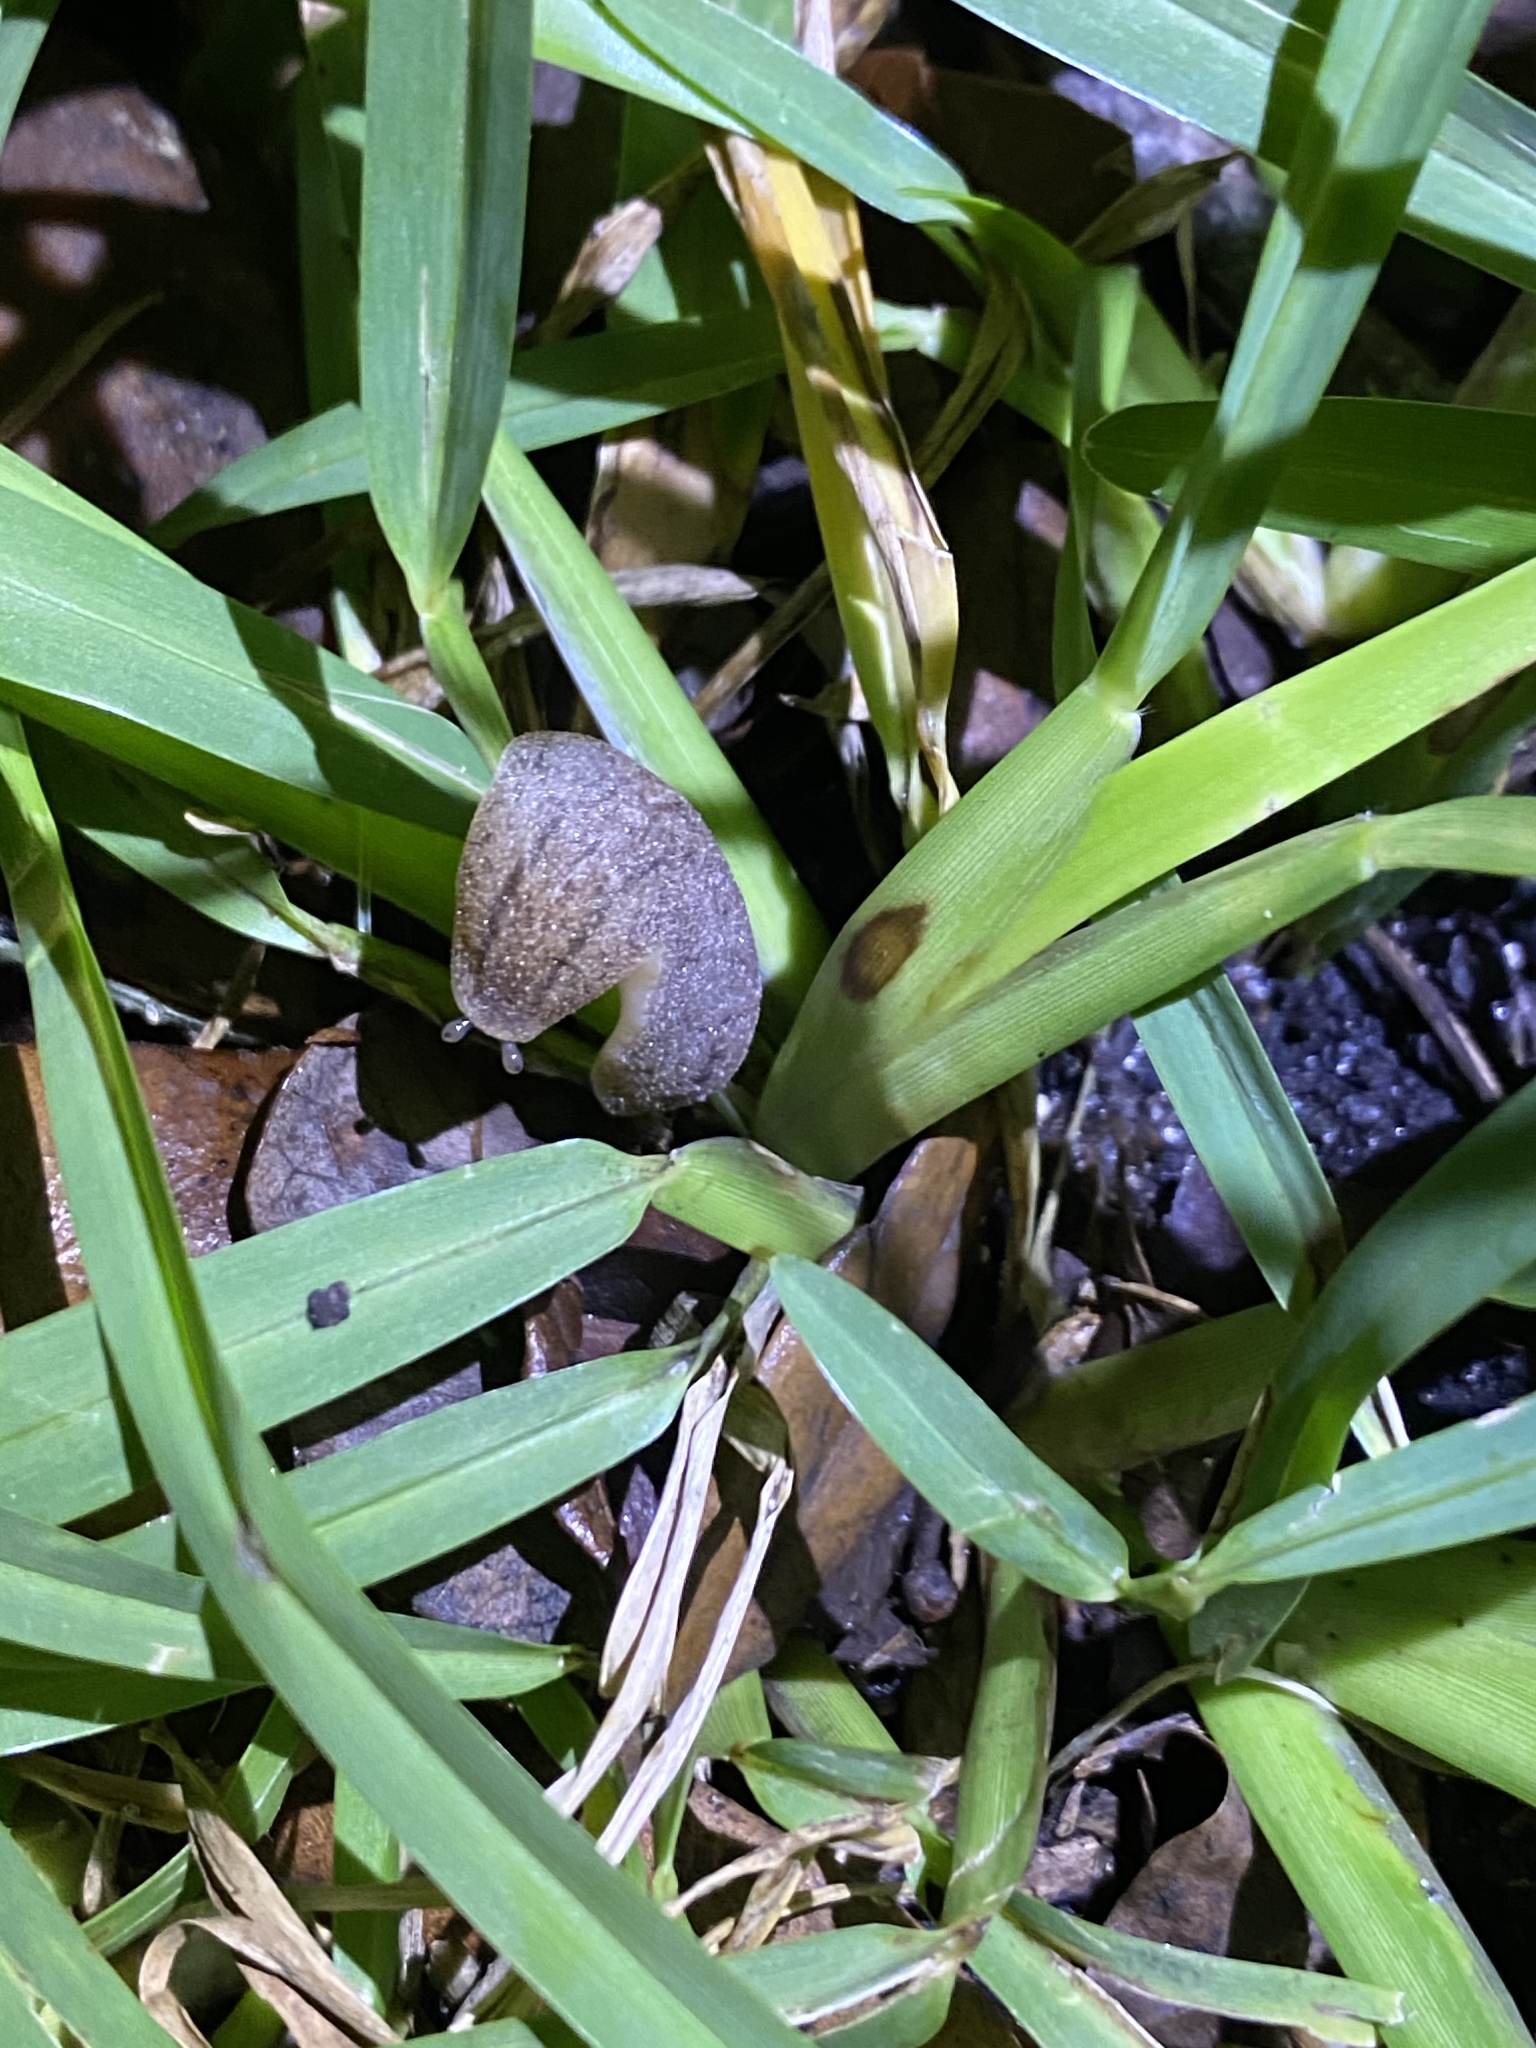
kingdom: Animalia
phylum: Mollusca
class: Gastropoda
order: Systellommatophora
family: Veronicellidae
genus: Leidyula
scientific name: Leidyula floridana
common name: Florida leatherleaf
